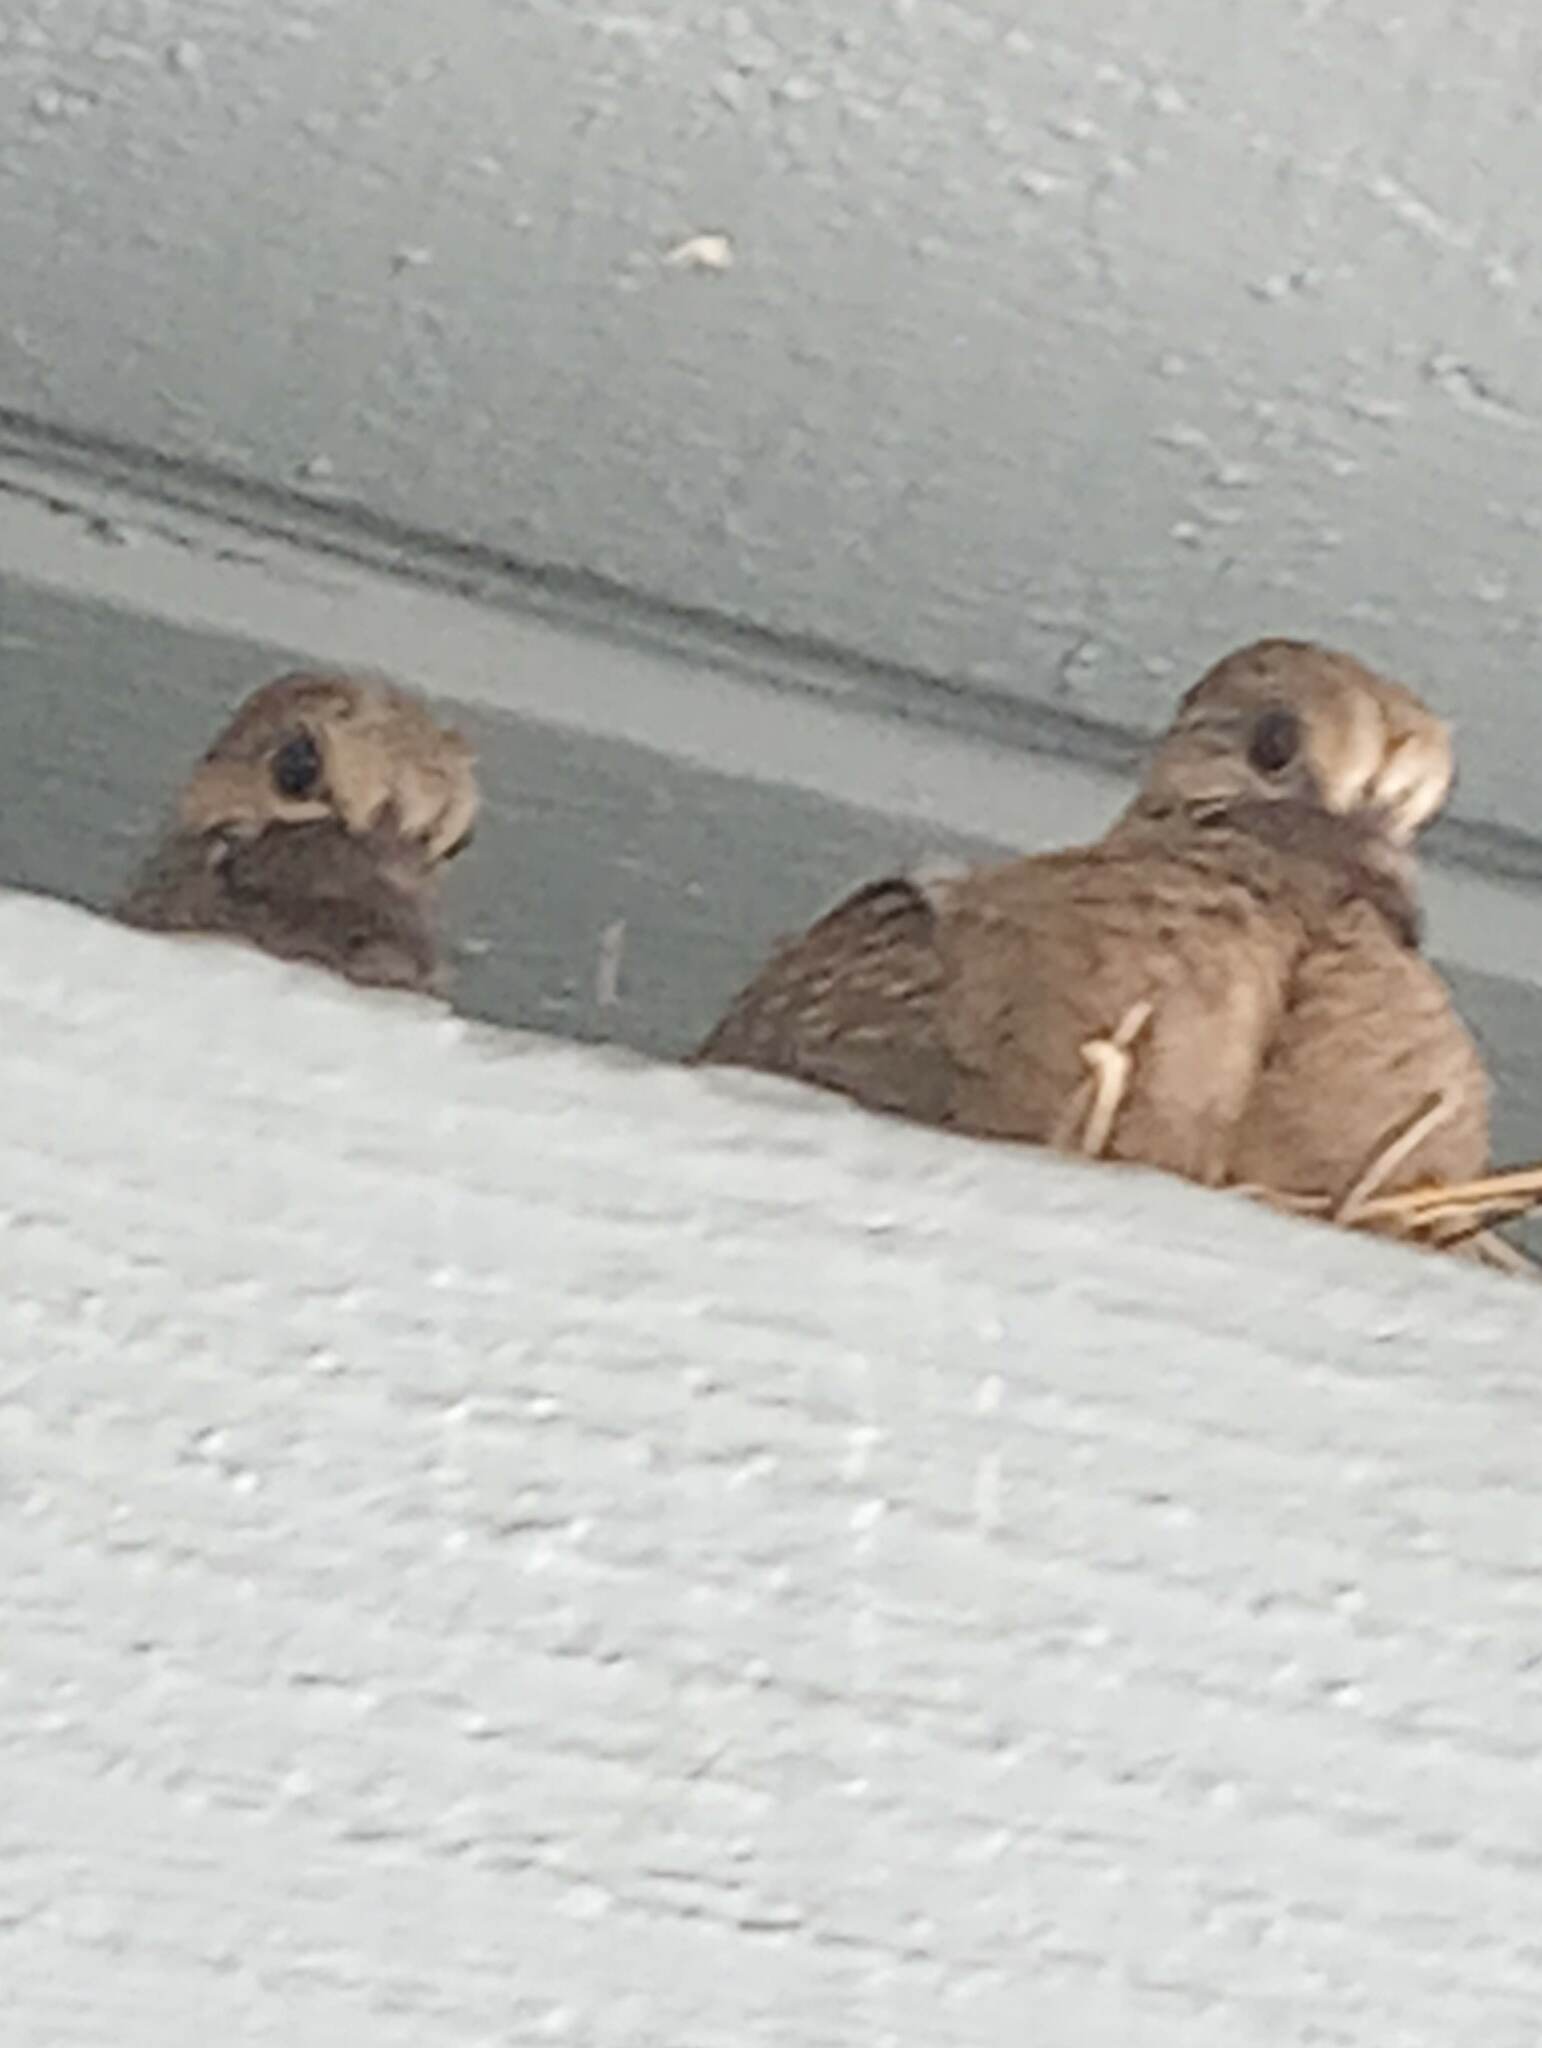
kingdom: Animalia
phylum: Chordata
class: Aves
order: Columbiformes
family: Columbidae
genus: Zenaida
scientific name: Zenaida macroura
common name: Mourning dove
